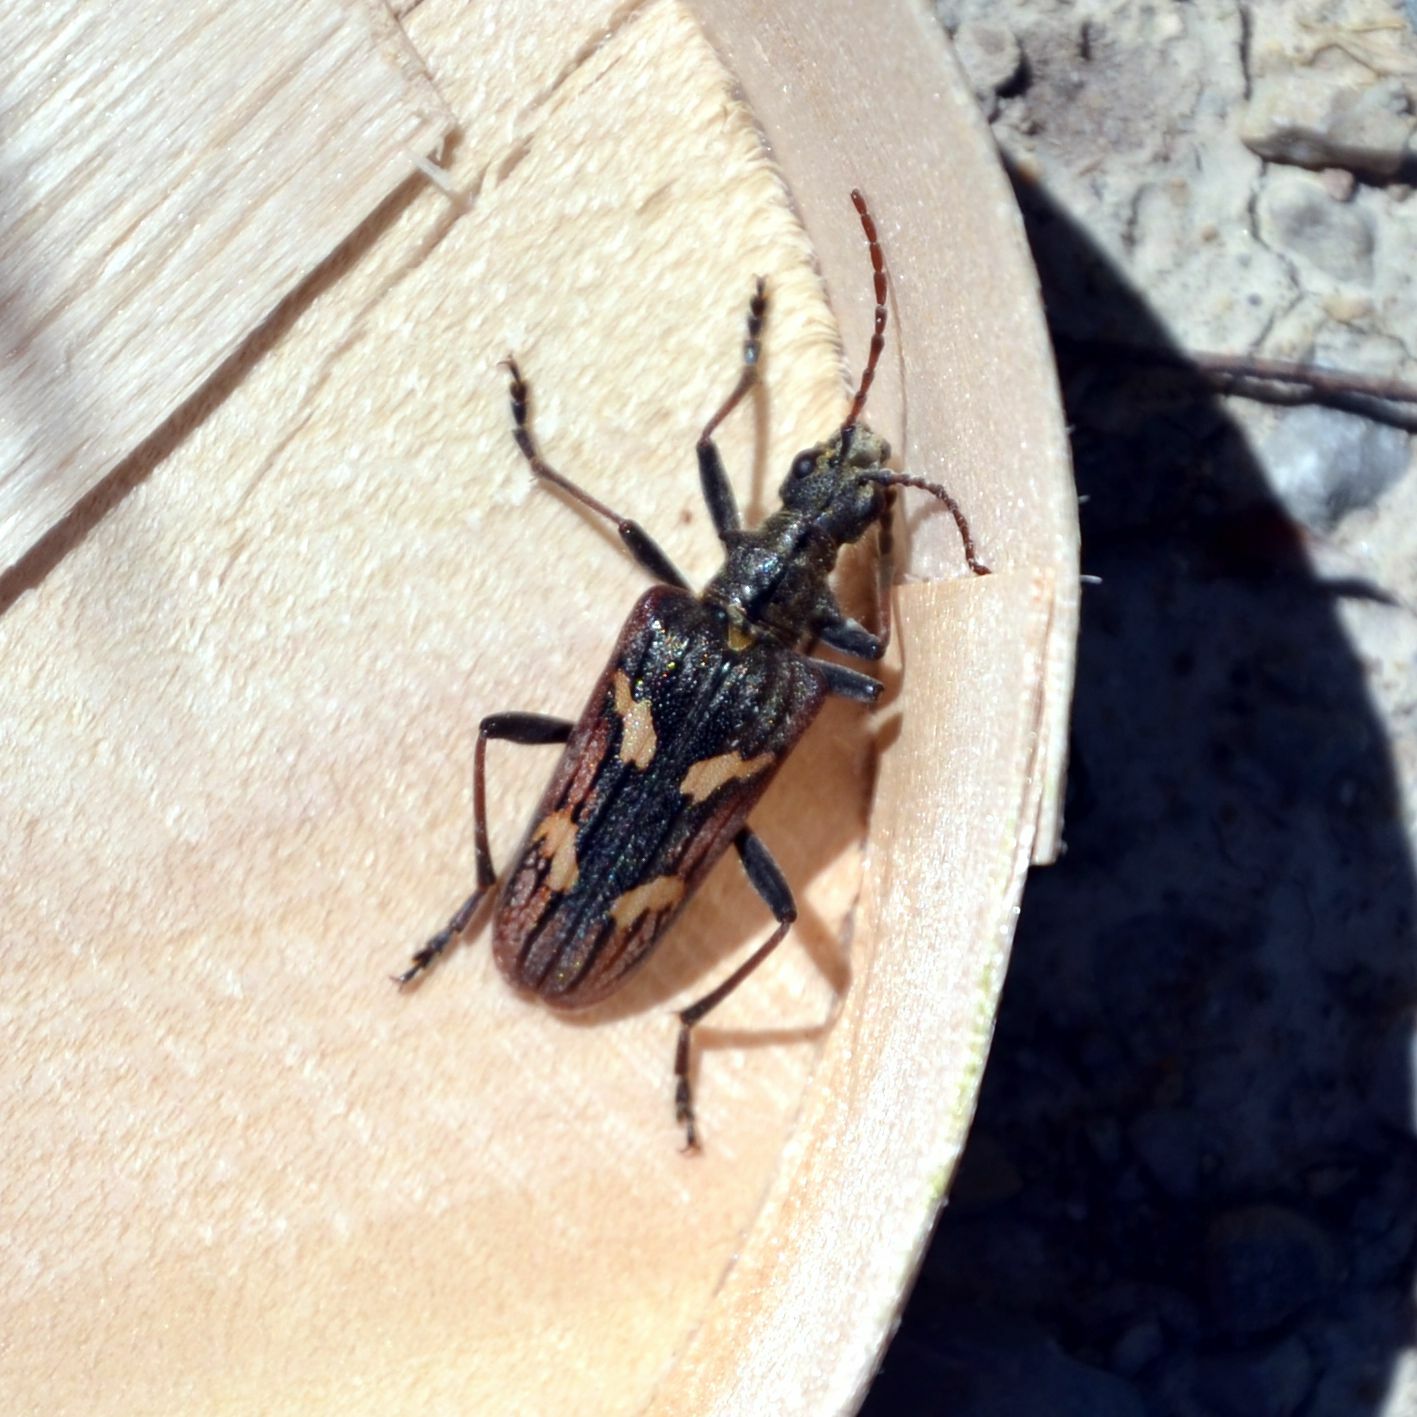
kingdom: Animalia
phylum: Arthropoda
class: Insecta
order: Coleoptera
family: Cerambycidae
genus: Rhagium
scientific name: Rhagium bifasciatum
